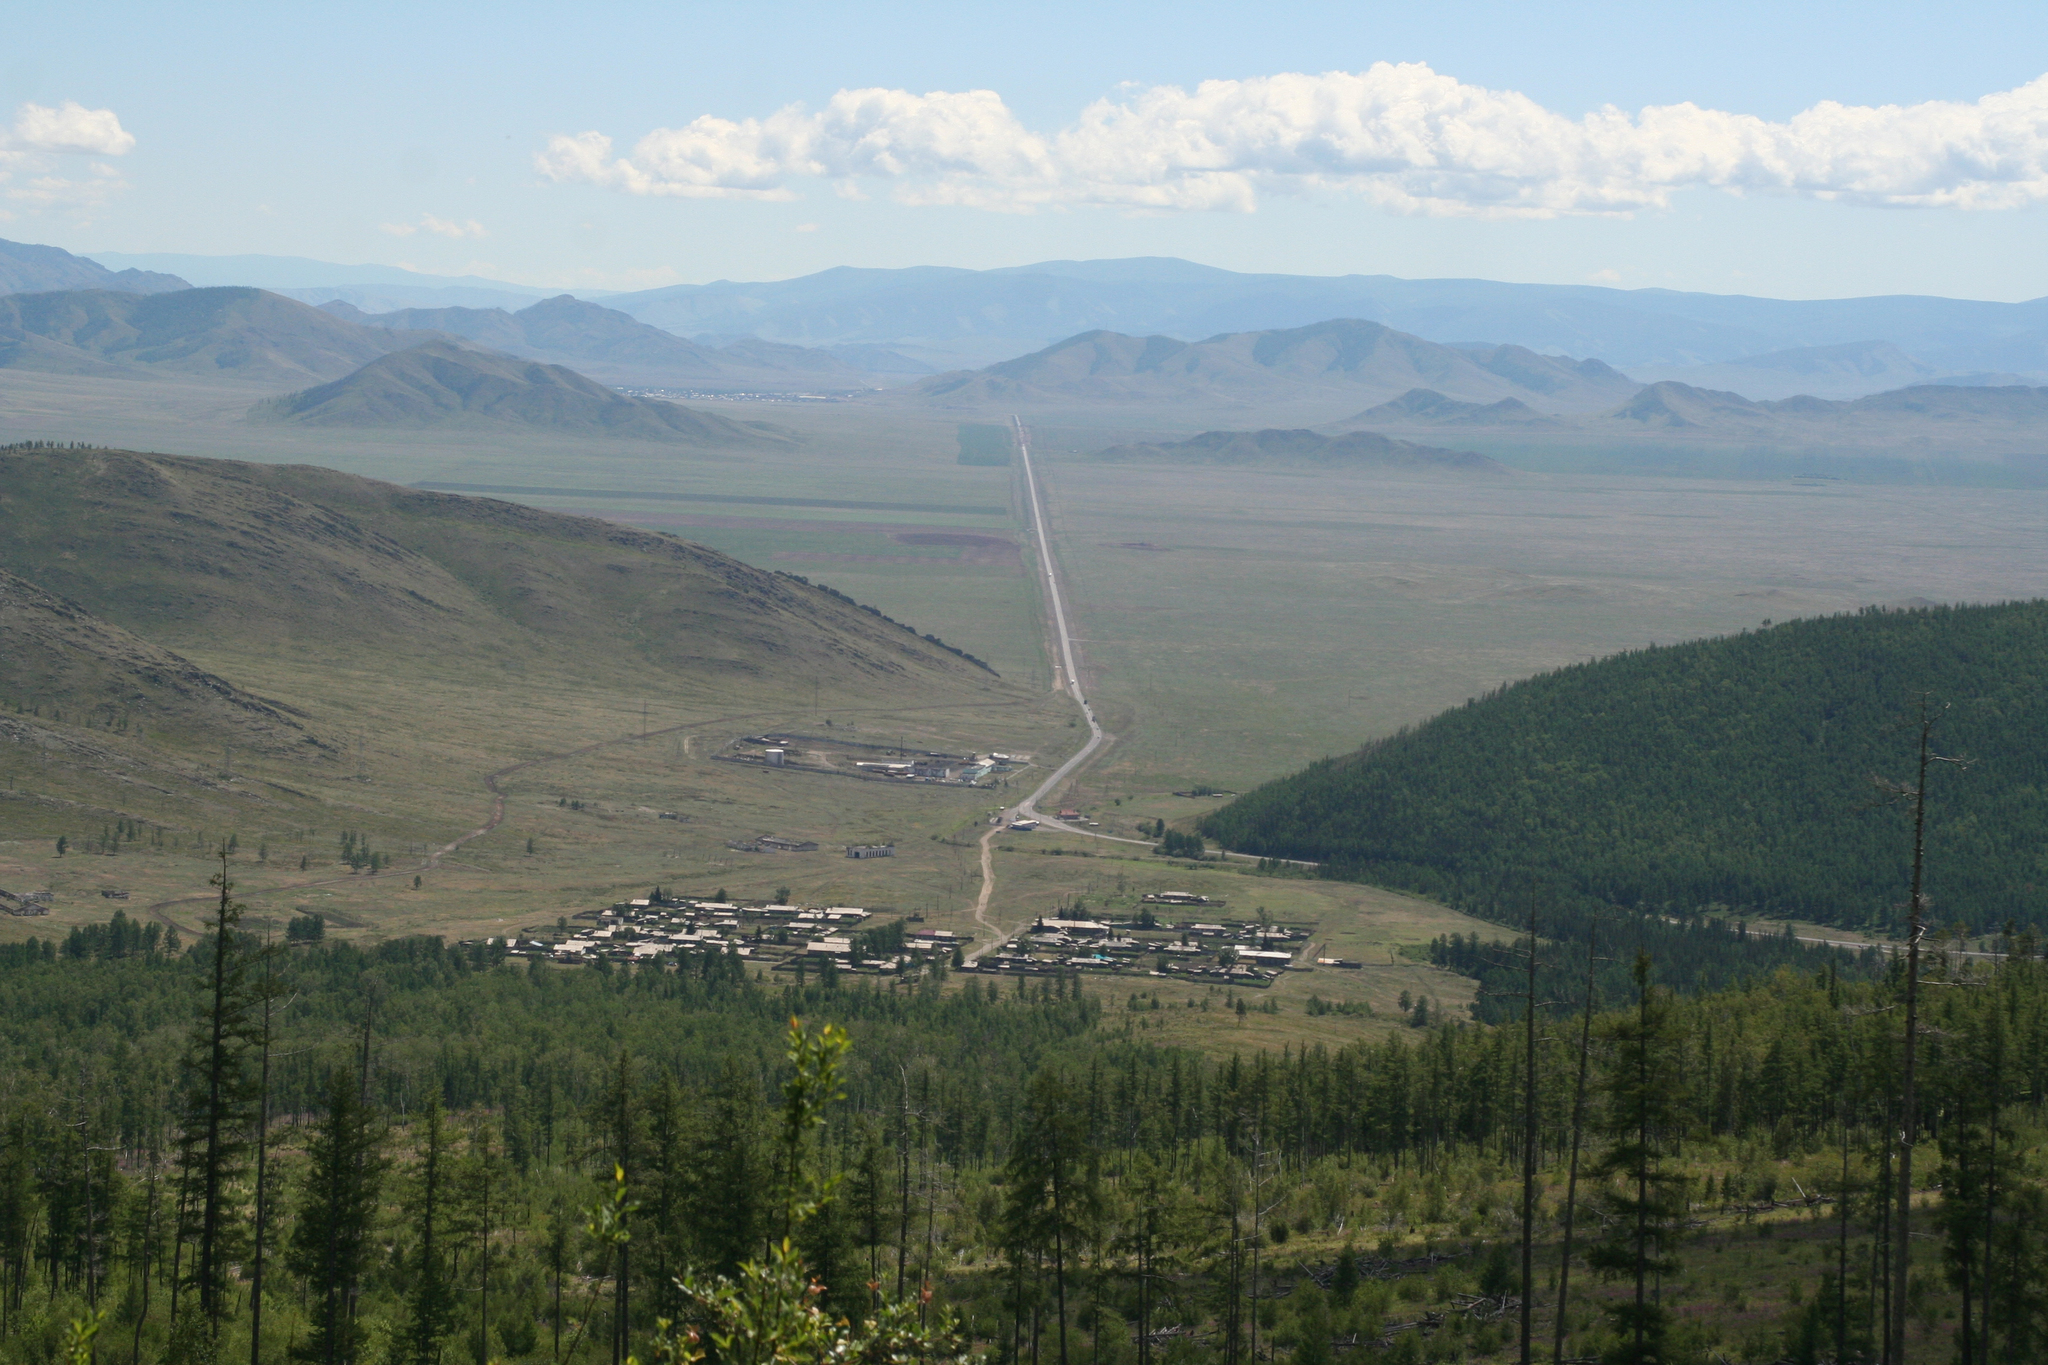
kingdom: Plantae
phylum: Tracheophyta
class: Pinopsida
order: Pinales
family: Pinaceae
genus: Larix
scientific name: Larix sibirica
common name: Siberian larch
